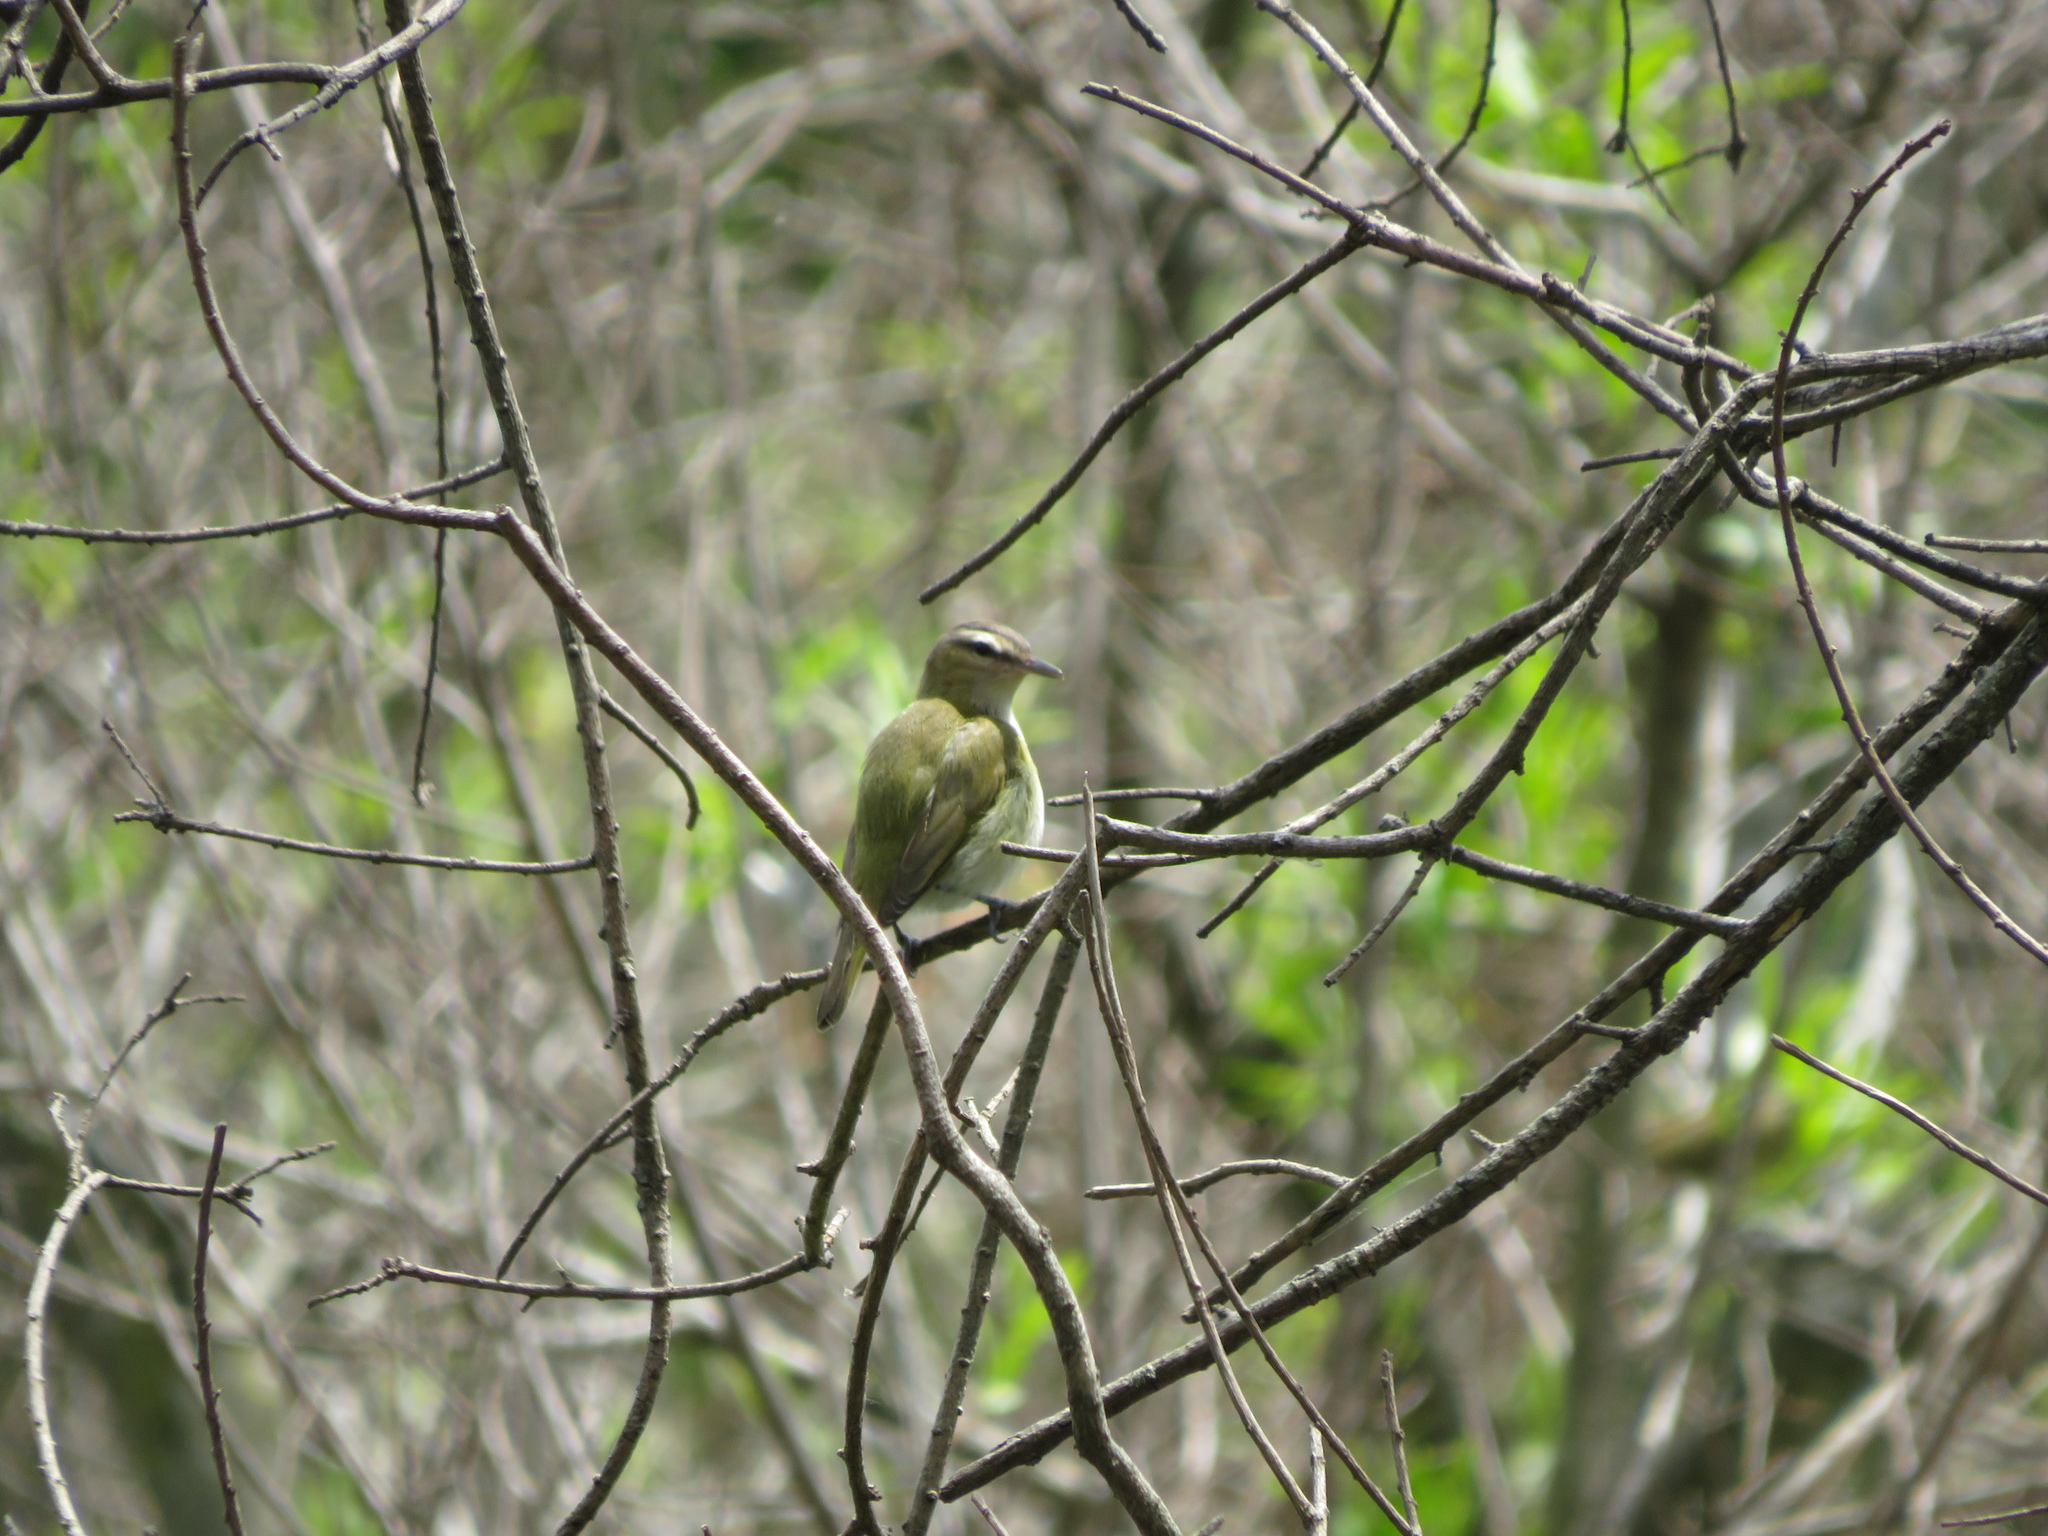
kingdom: Animalia
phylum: Chordata
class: Aves
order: Passeriformes
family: Vireonidae
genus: Vireo
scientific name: Vireo olivaceus
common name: Red-eyed vireo
